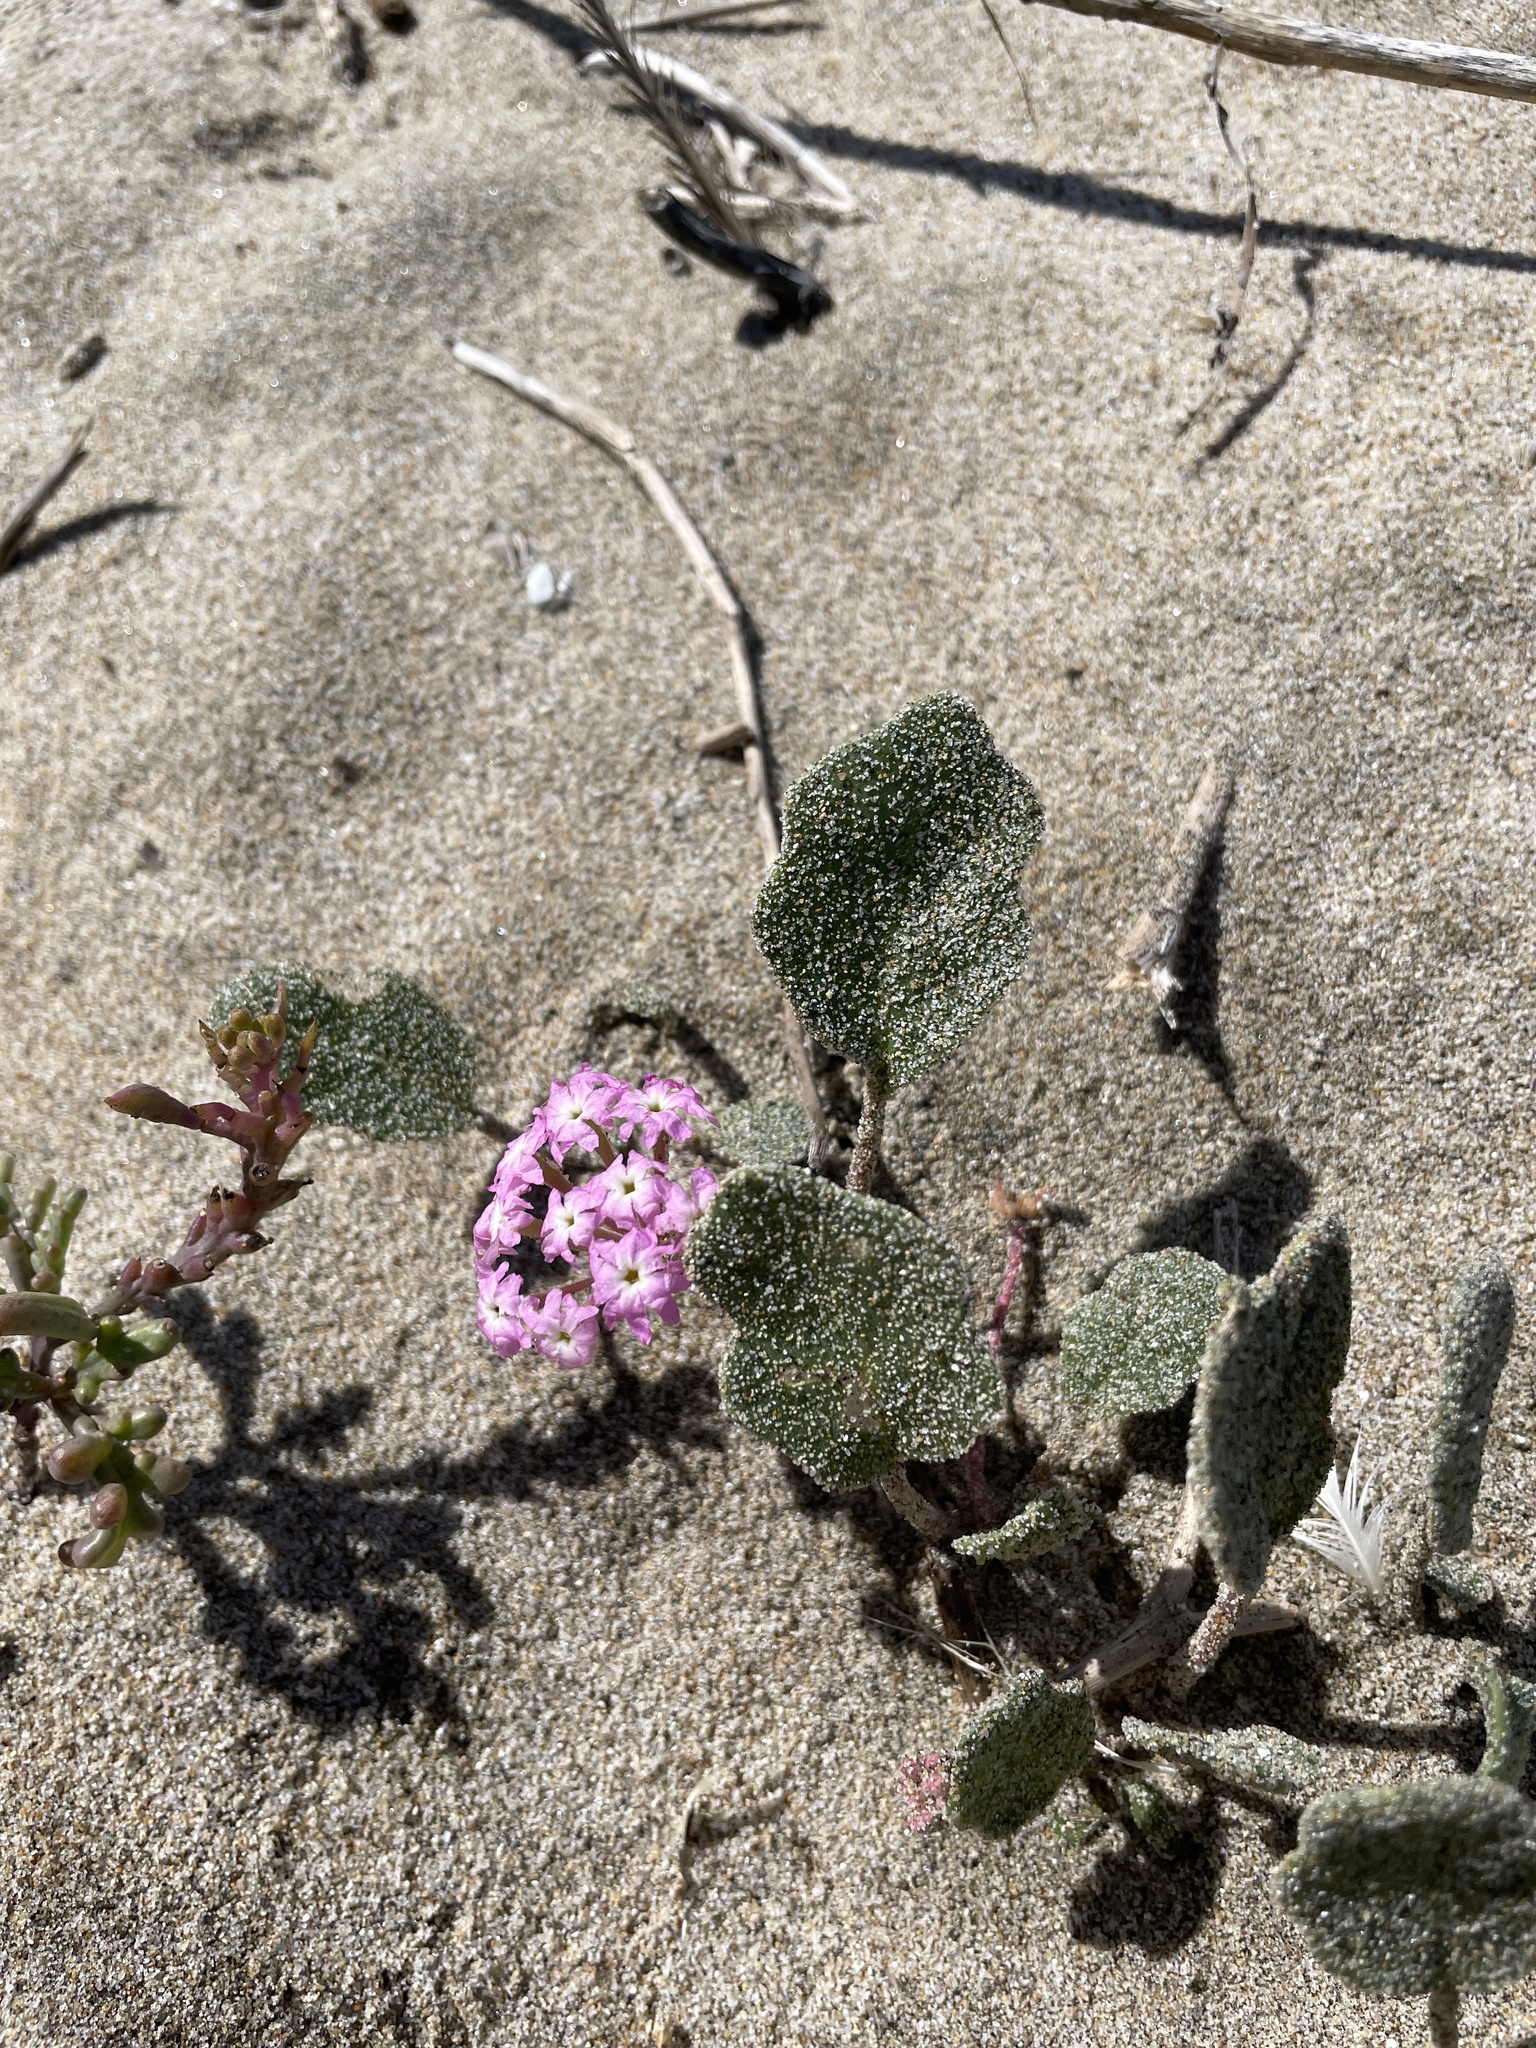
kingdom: Plantae
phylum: Tracheophyta
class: Magnoliopsida
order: Caryophyllales
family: Nyctaginaceae
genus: Abronia
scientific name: Abronia umbellata
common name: Sand-verbena
